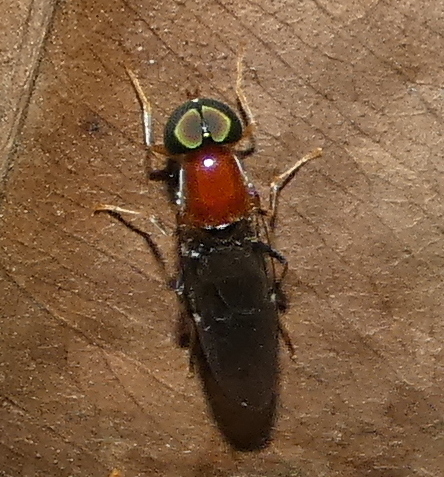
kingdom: Animalia
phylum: Arthropoda
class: Insecta
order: Diptera
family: Stratiomyidae
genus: Sargus
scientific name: Sargus thoracicus
